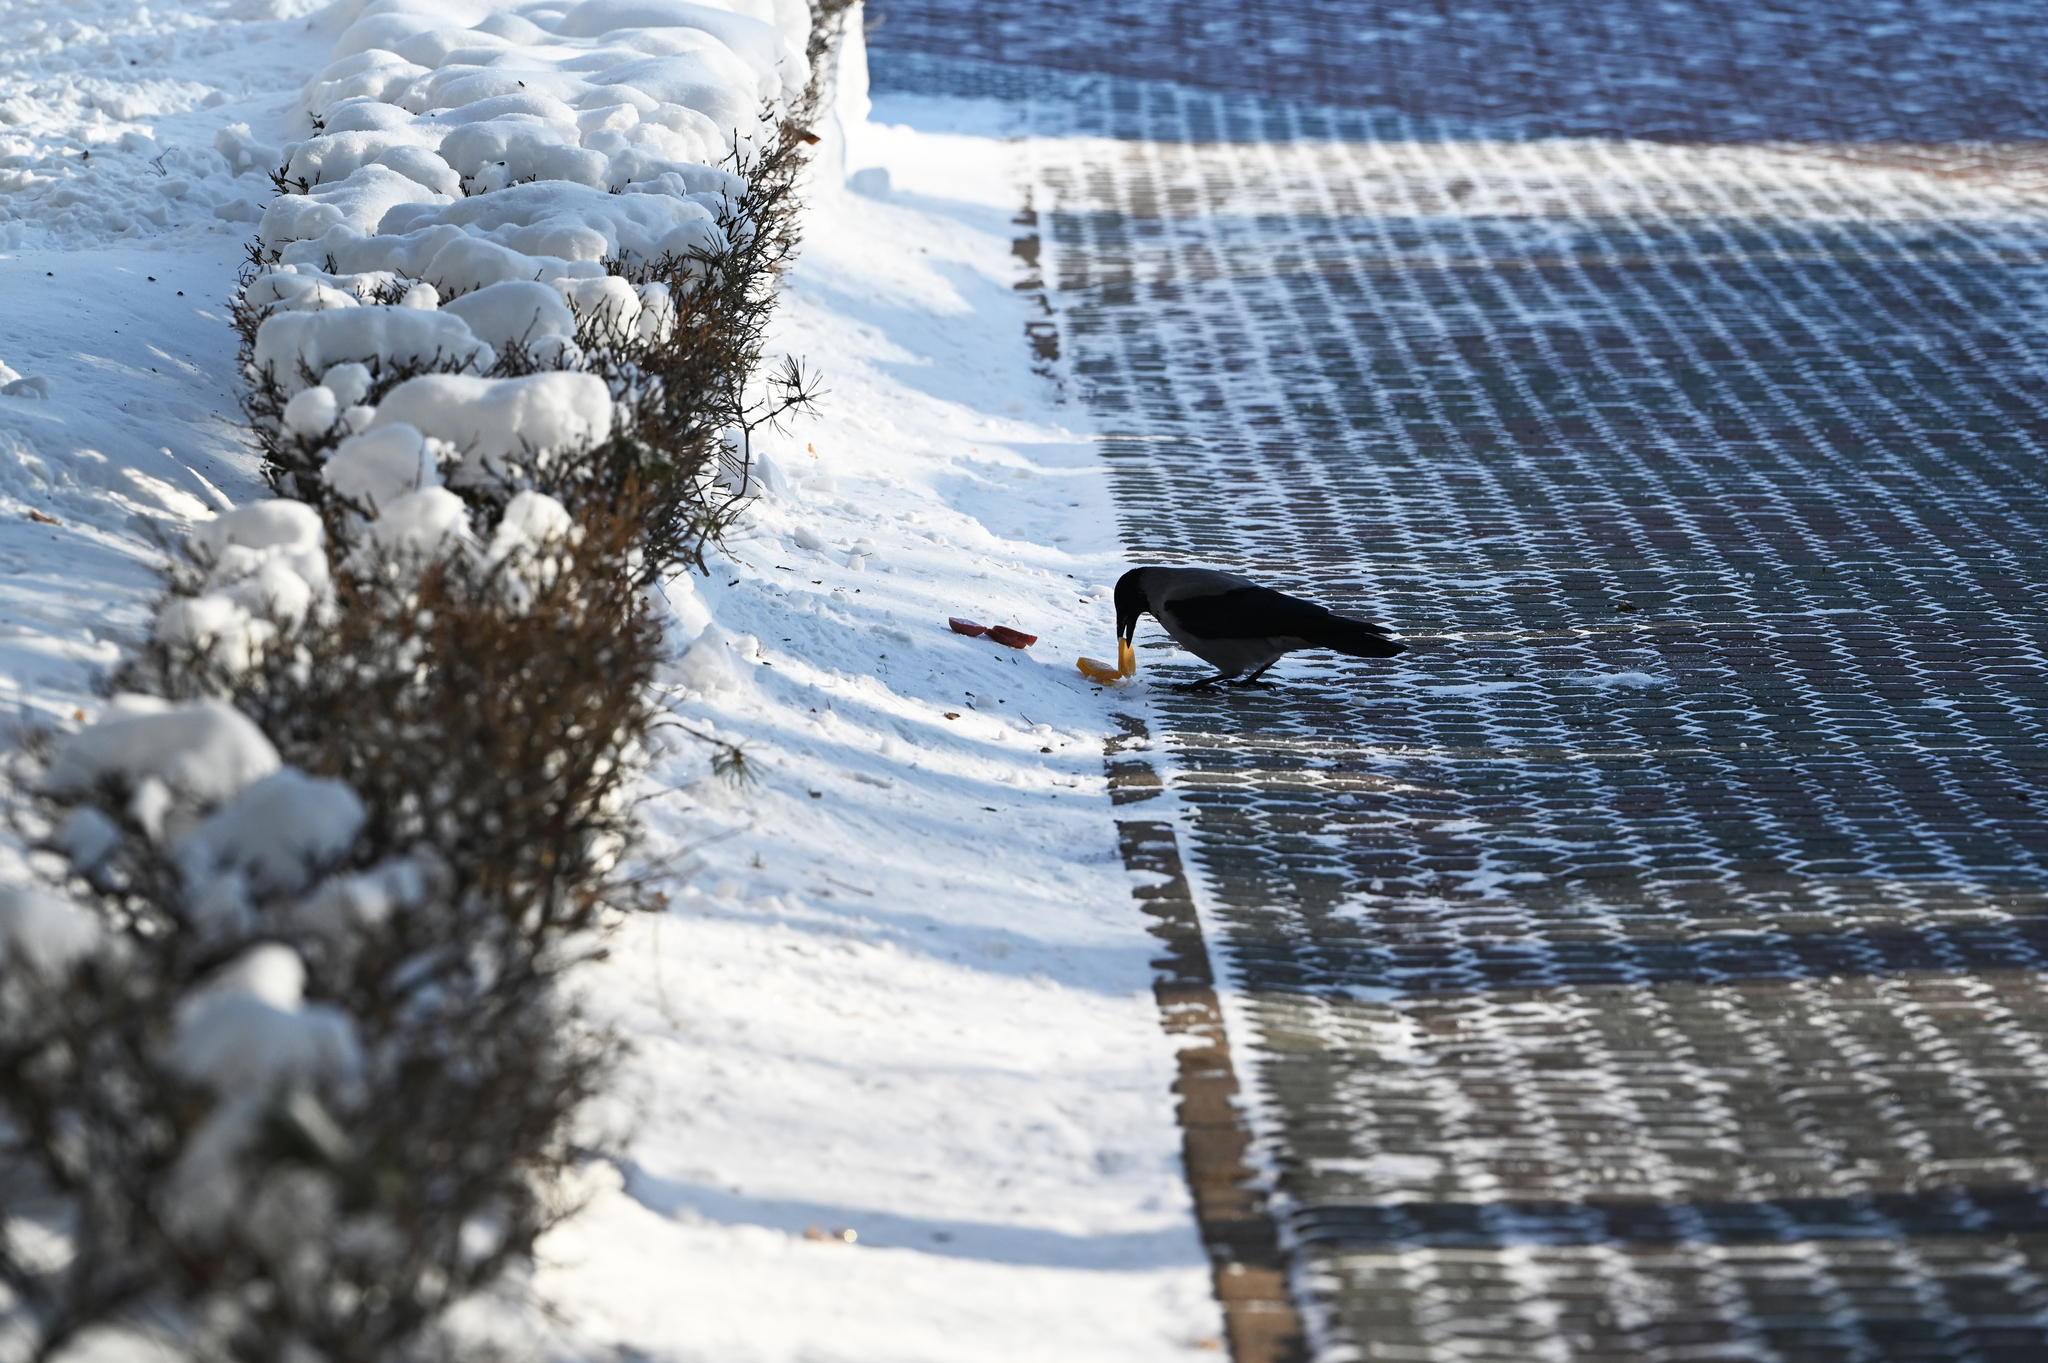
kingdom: Animalia
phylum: Chordata
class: Aves
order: Passeriformes
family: Corvidae
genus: Corvus
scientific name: Corvus cornix
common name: Hooded crow
